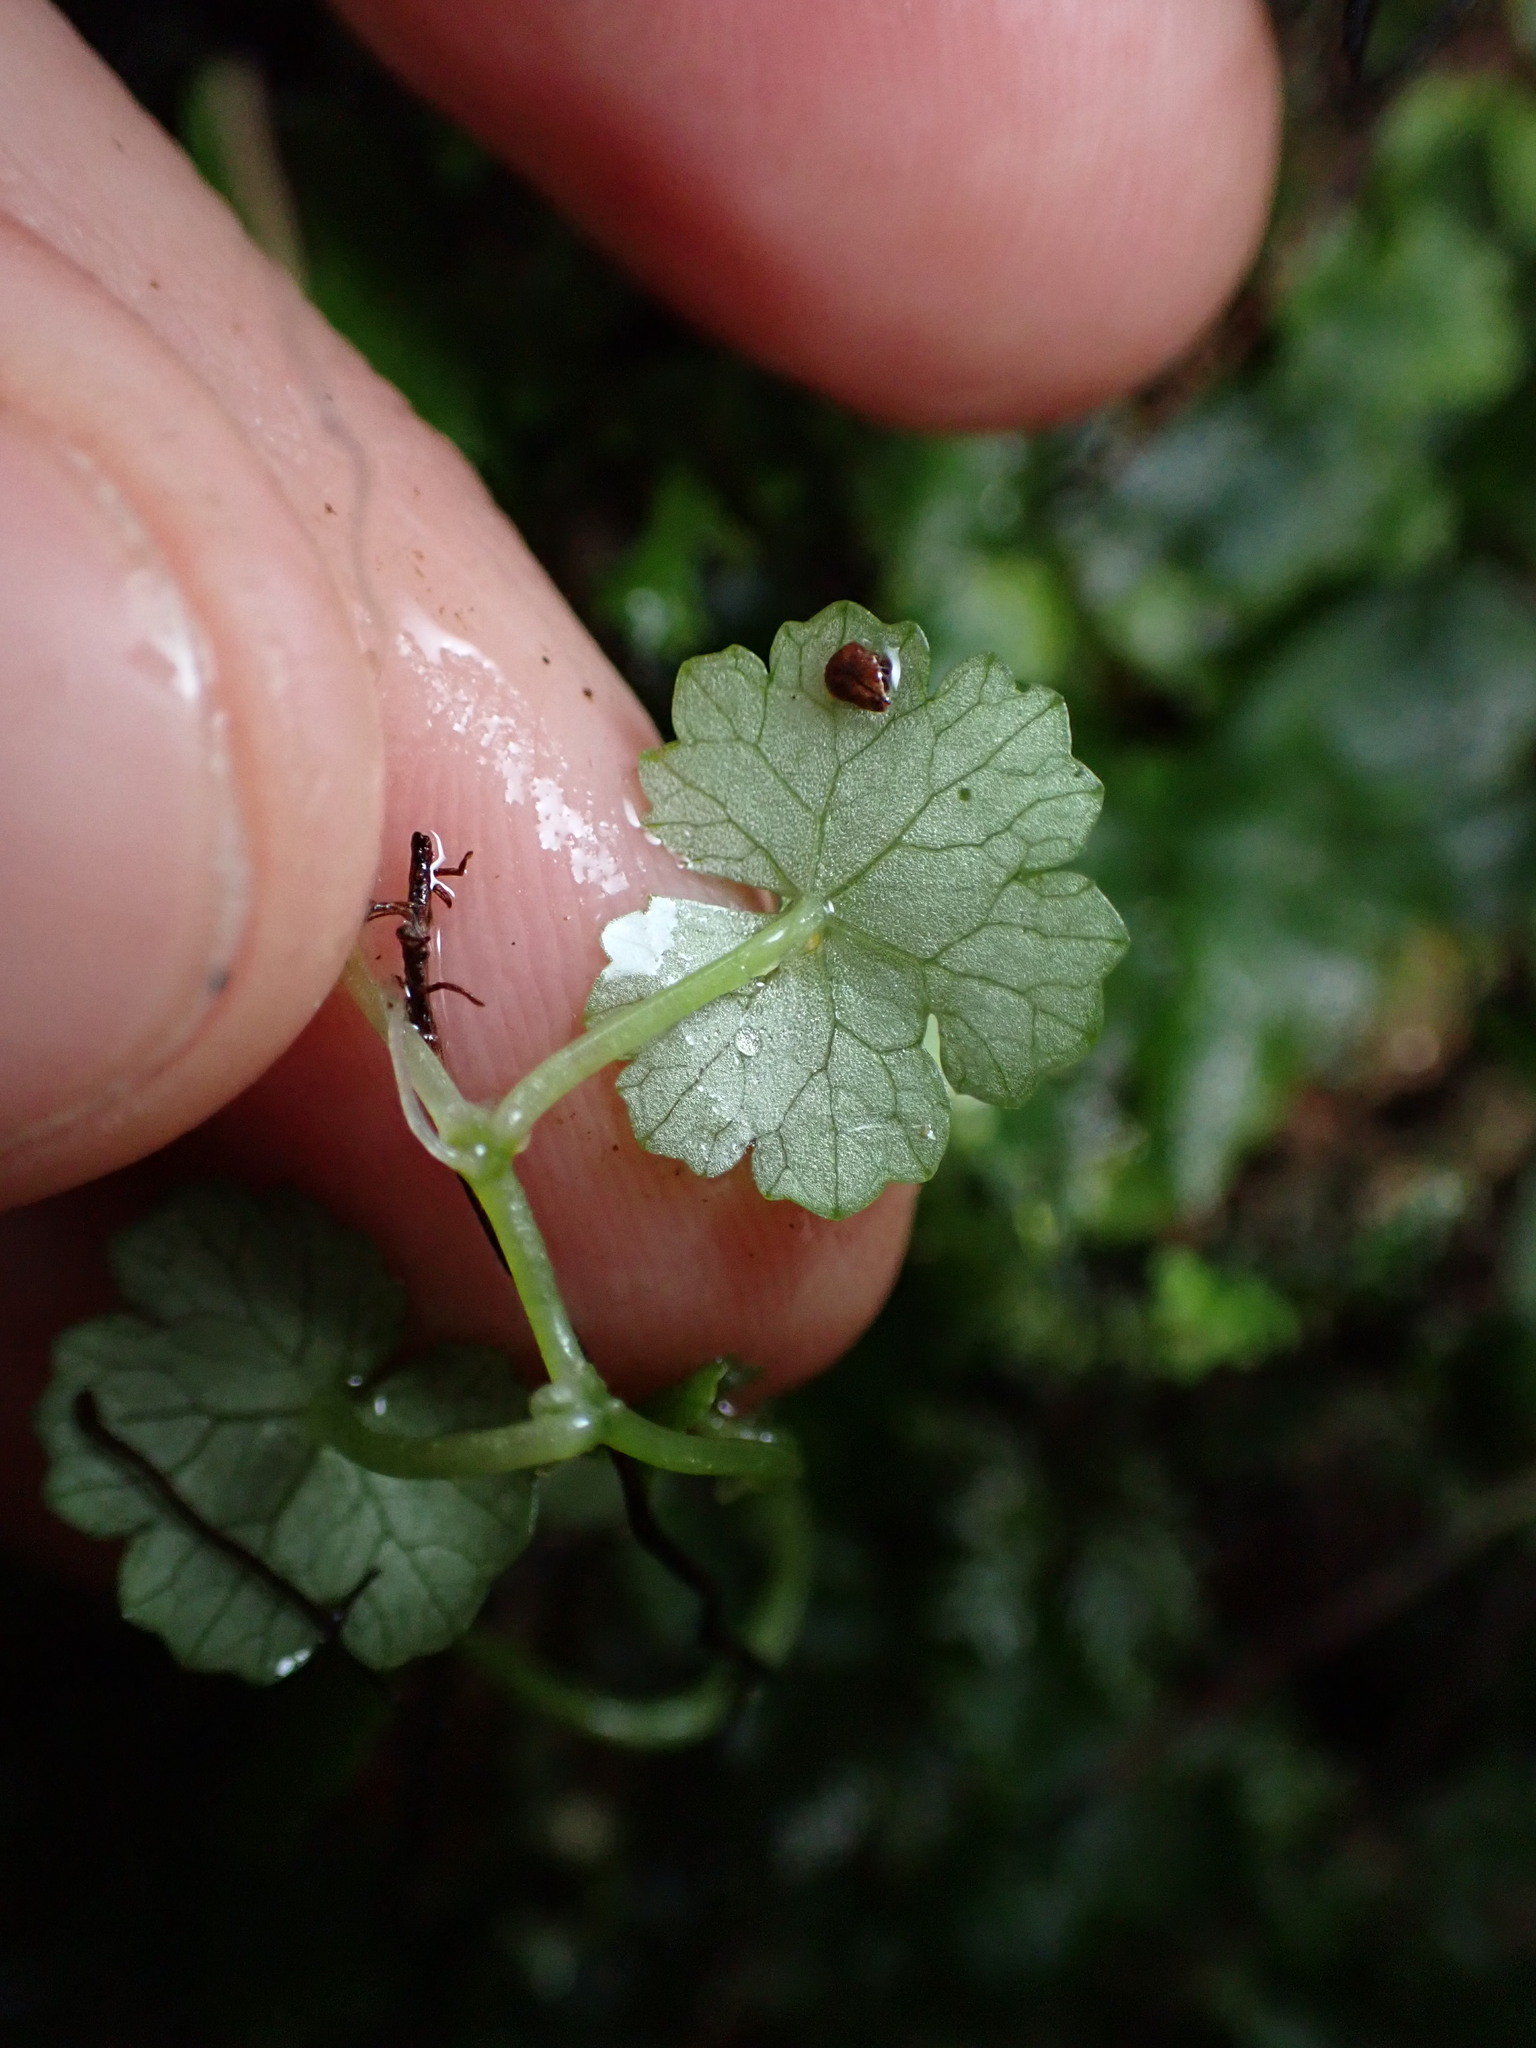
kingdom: Plantae
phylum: Tracheophyta
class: Magnoliopsida
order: Apiales
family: Araliaceae
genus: Hydrocotyle
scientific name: Hydrocotyle heteromeria
